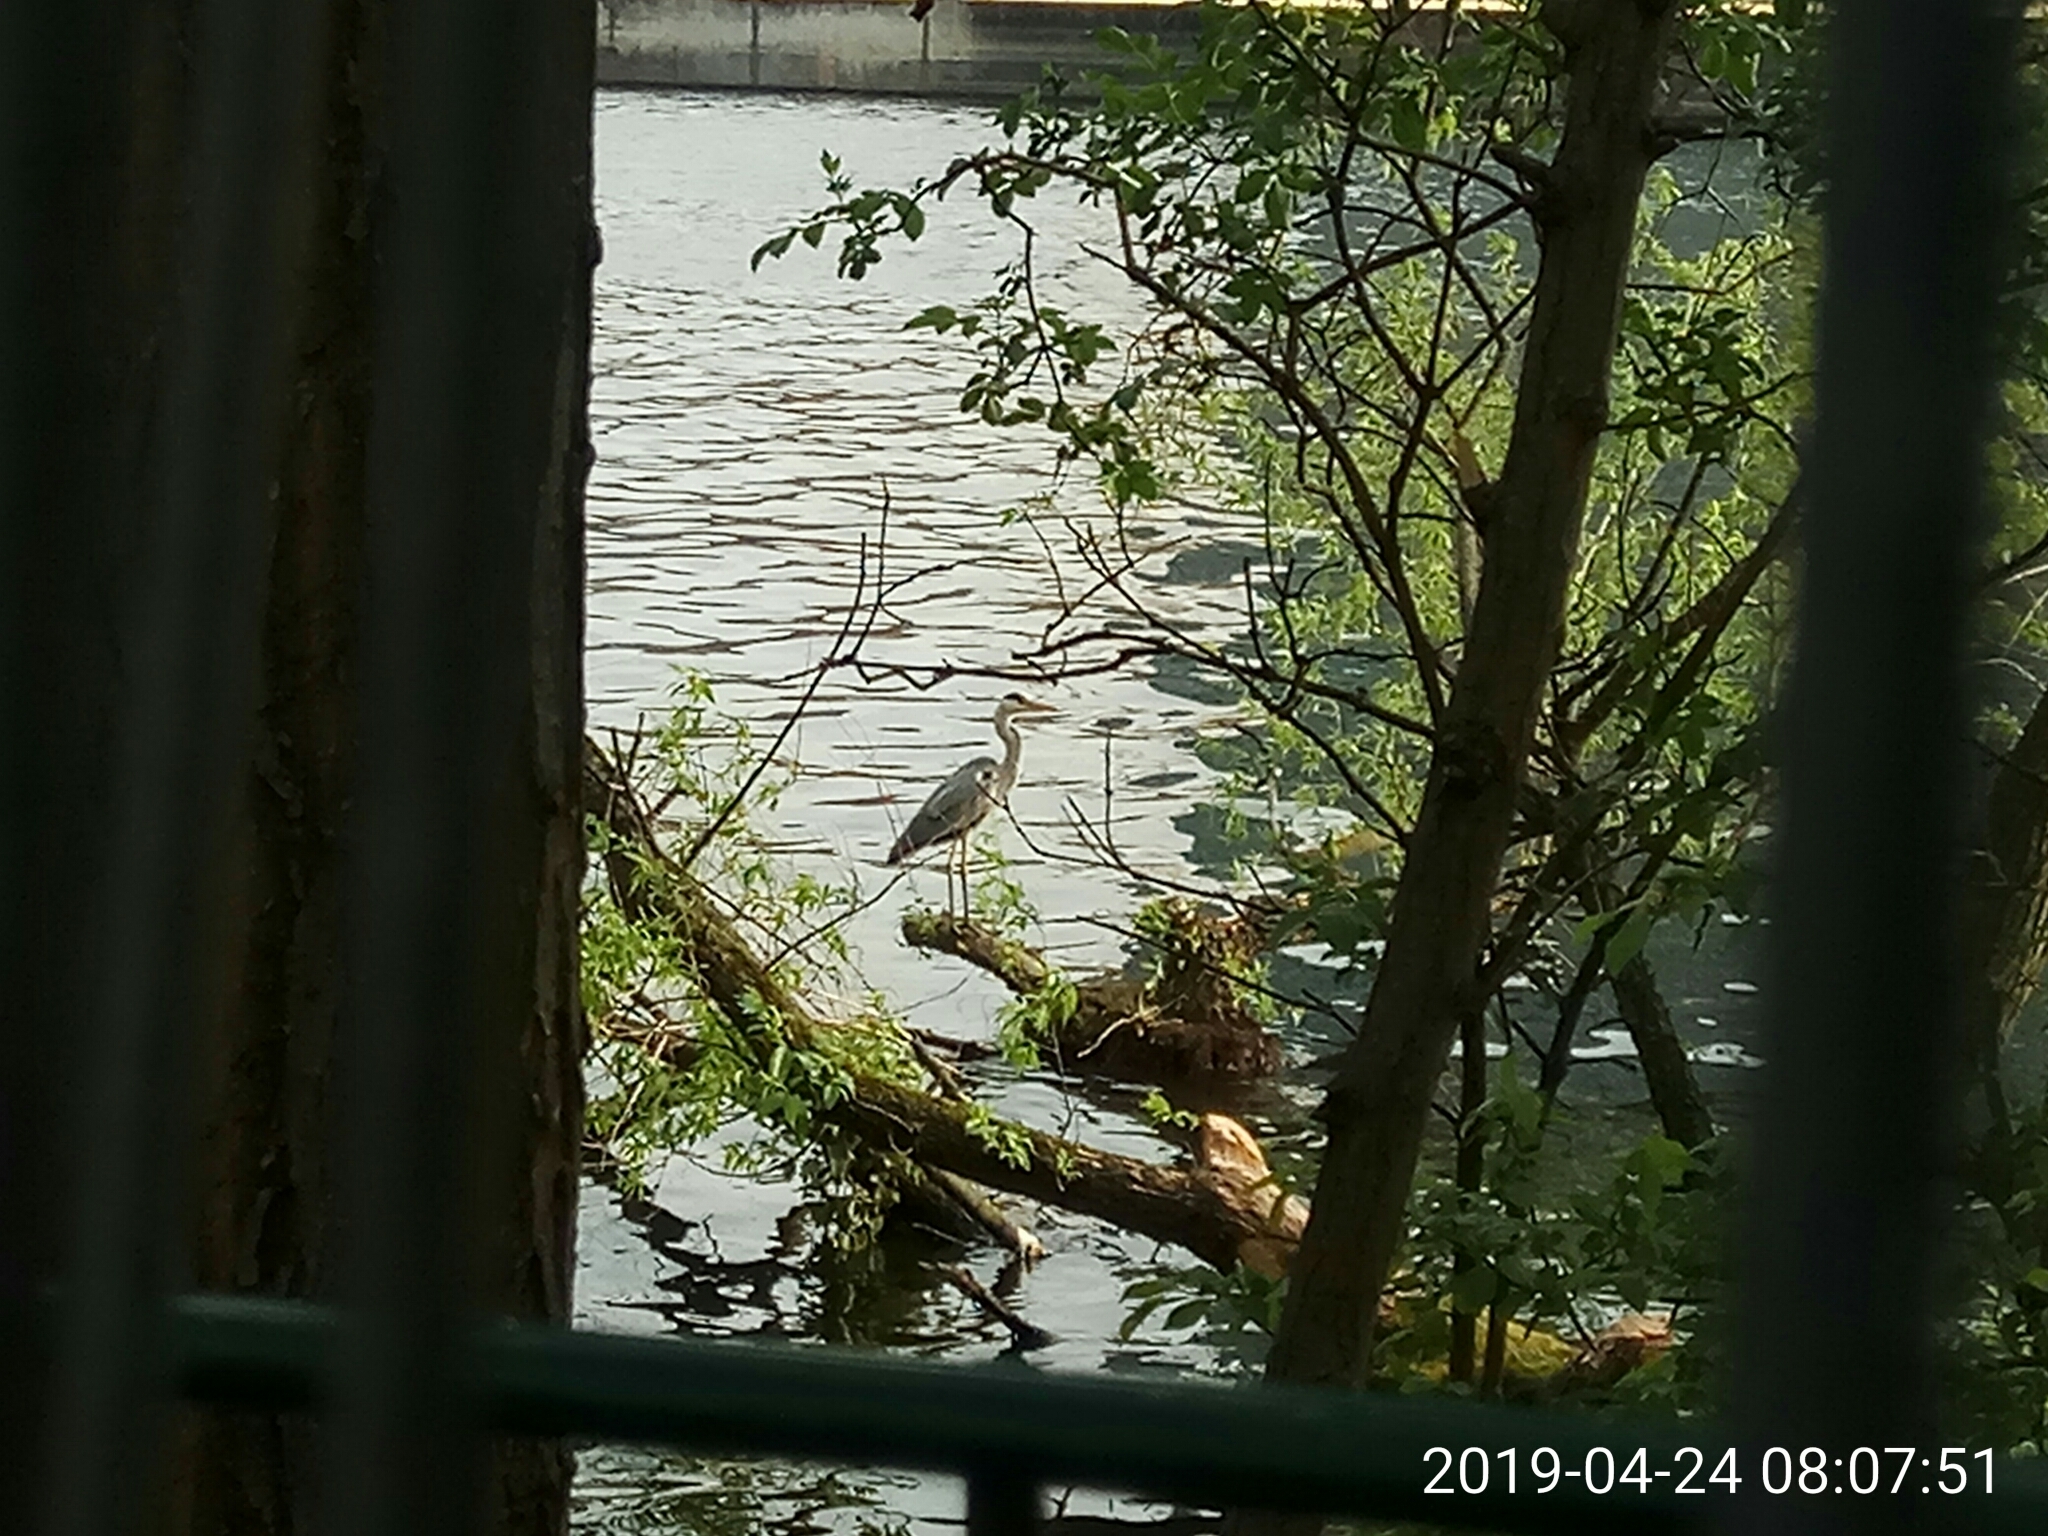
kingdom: Animalia
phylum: Chordata
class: Aves
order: Pelecaniformes
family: Ardeidae
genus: Ardea
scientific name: Ardea cinerea
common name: Grey heron
